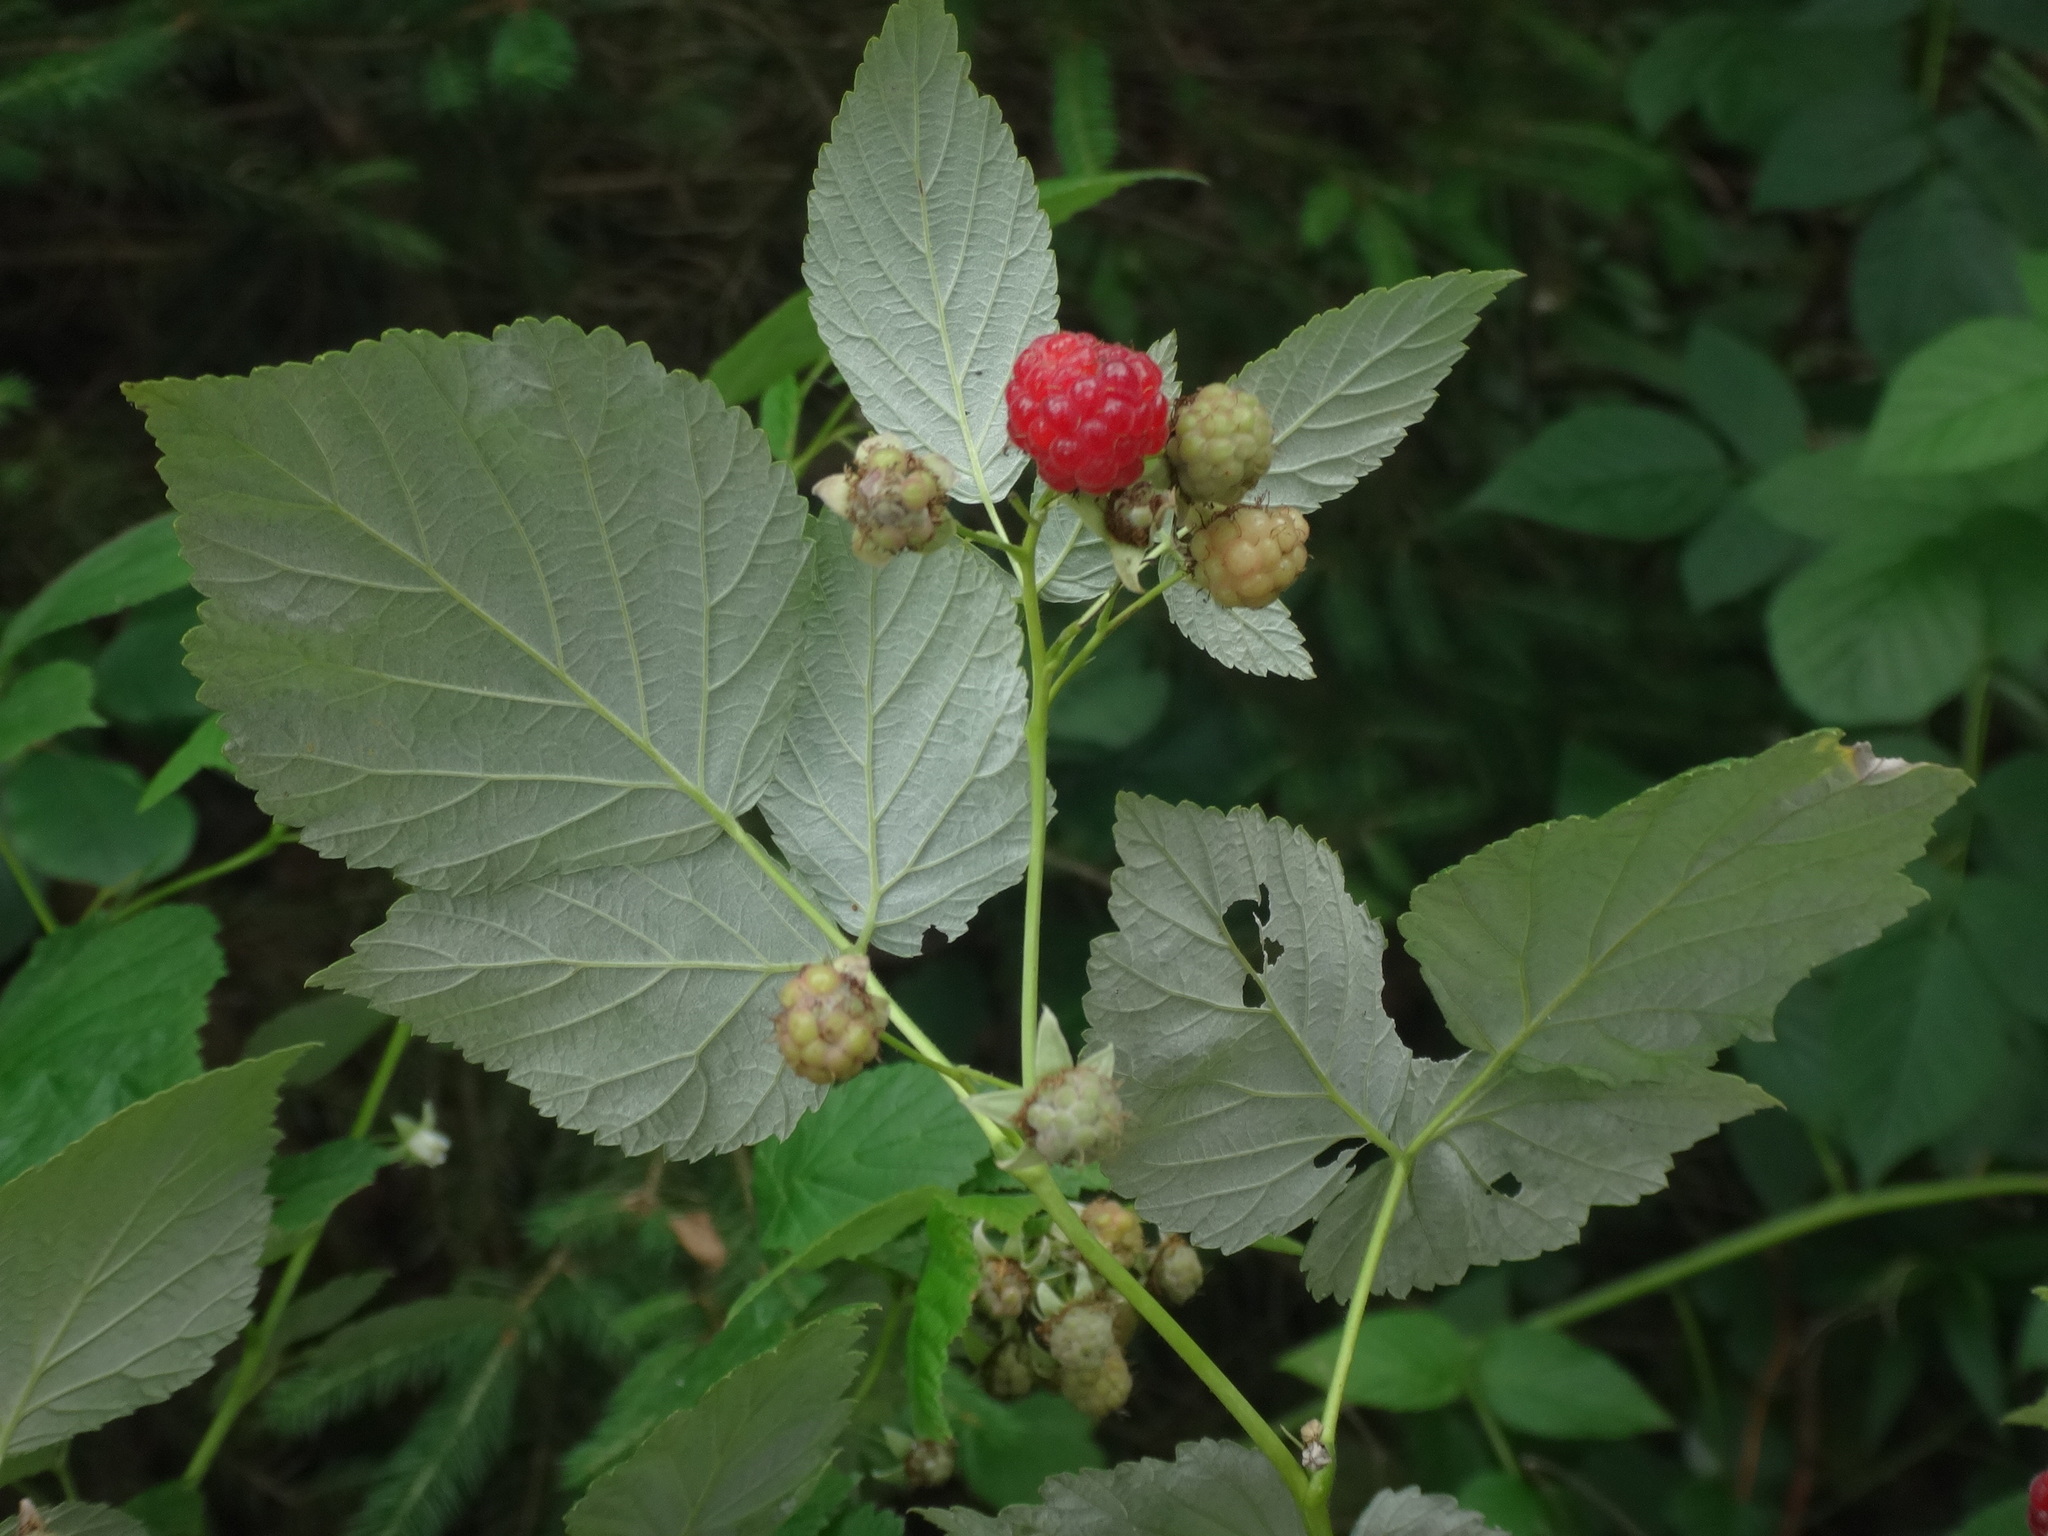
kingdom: Plantae
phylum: Tracheophyta
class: Magnoliopsida
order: Rosales
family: Rosaceae
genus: Rubus
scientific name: Rubus idaeus
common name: Raspberry
